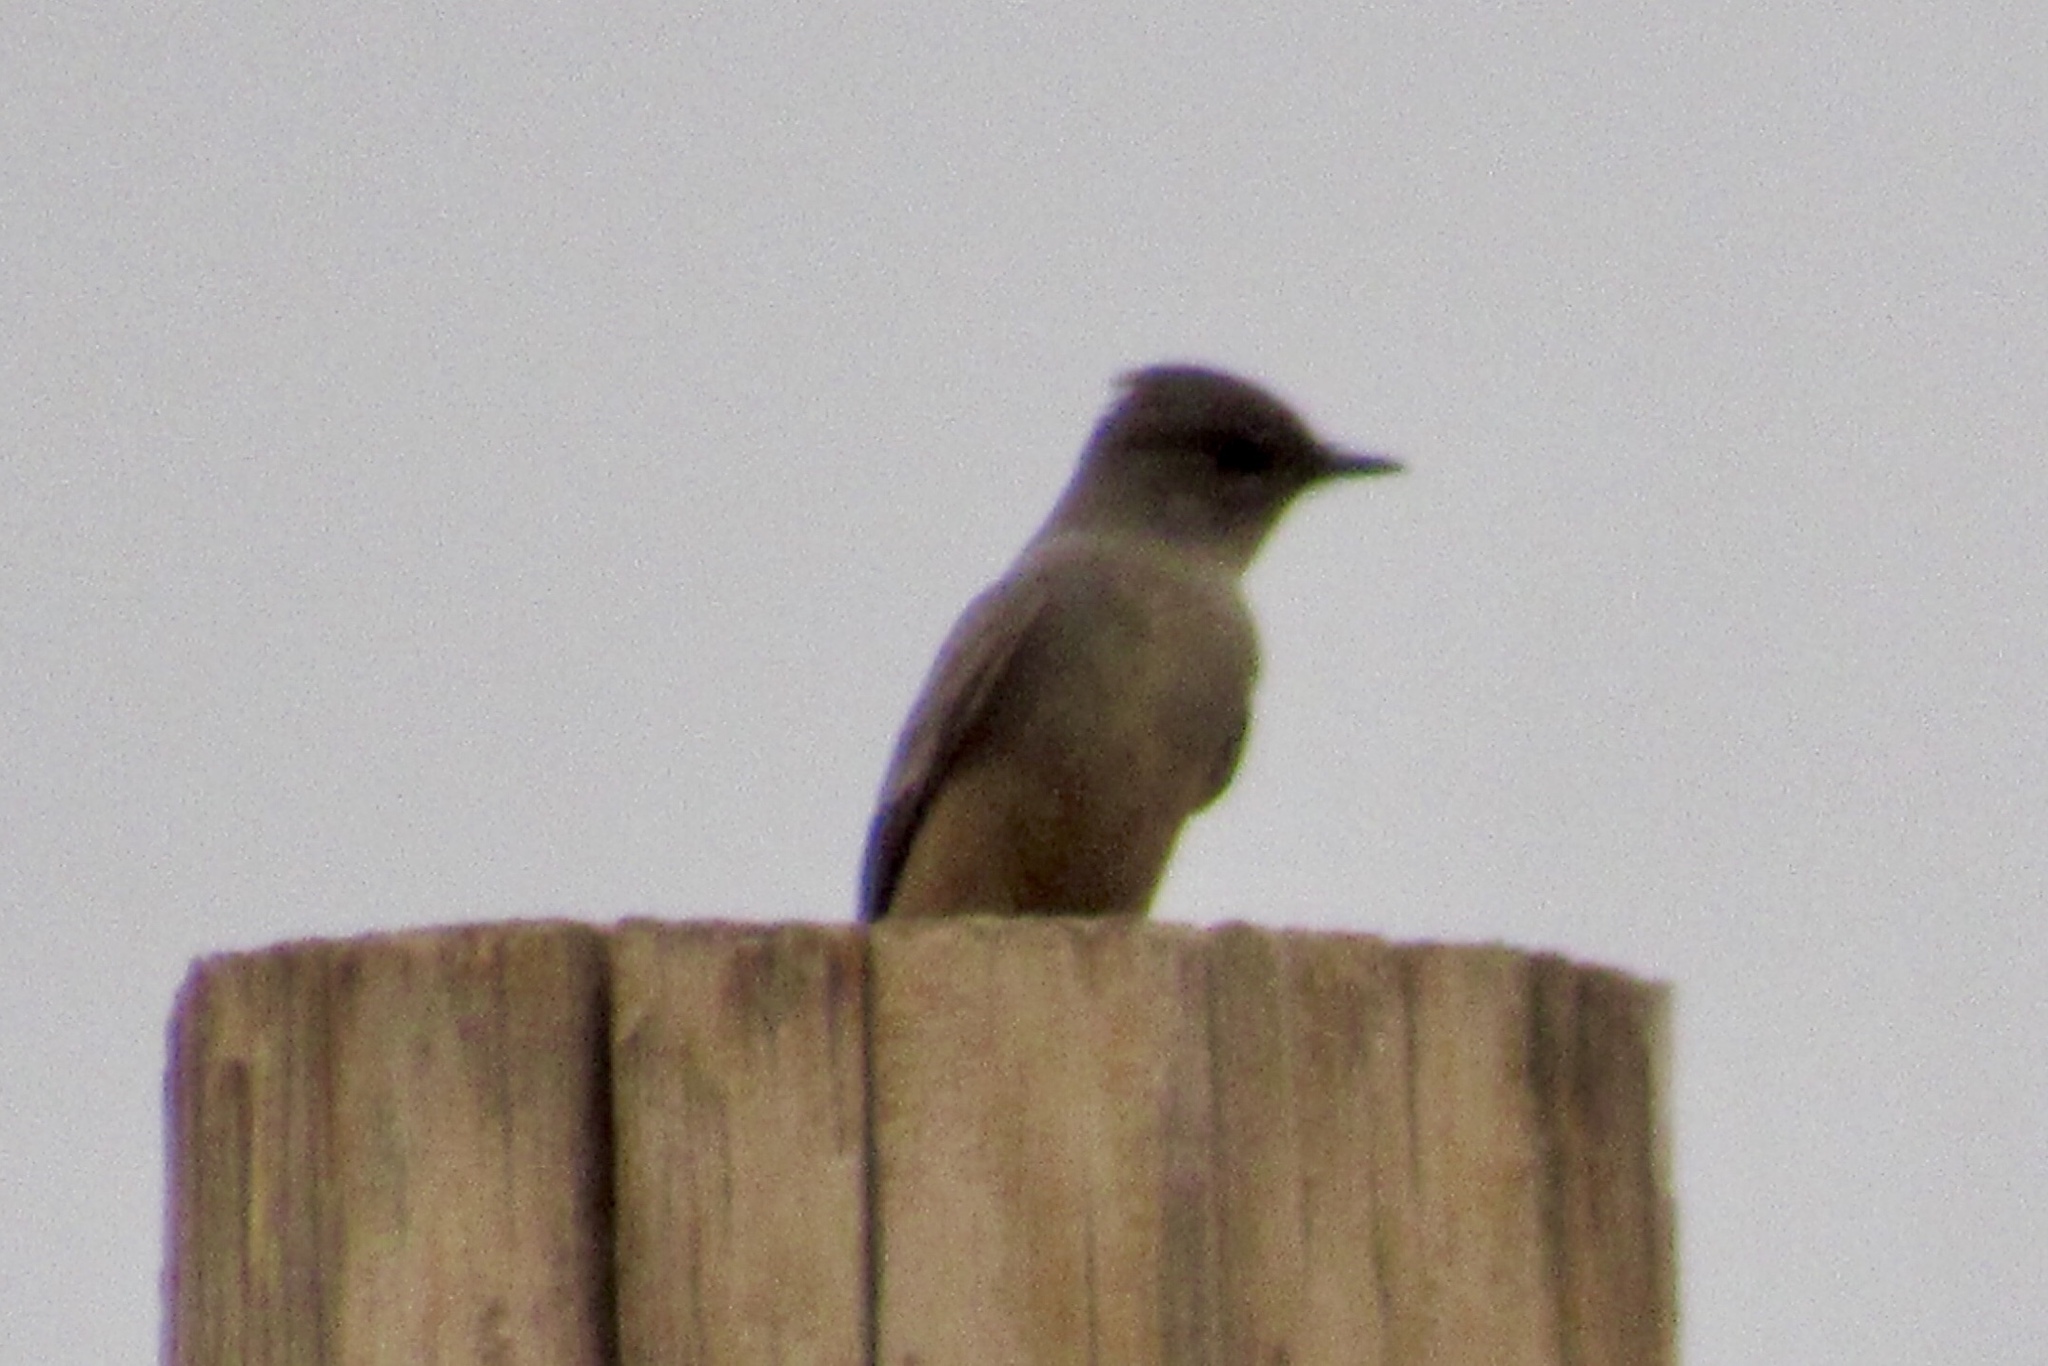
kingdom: Animalia
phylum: Chordata
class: Aves
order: Passeriformes
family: Tyrannidae
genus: Sayornis
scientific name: Sayornis saya
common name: Say's phoebe
